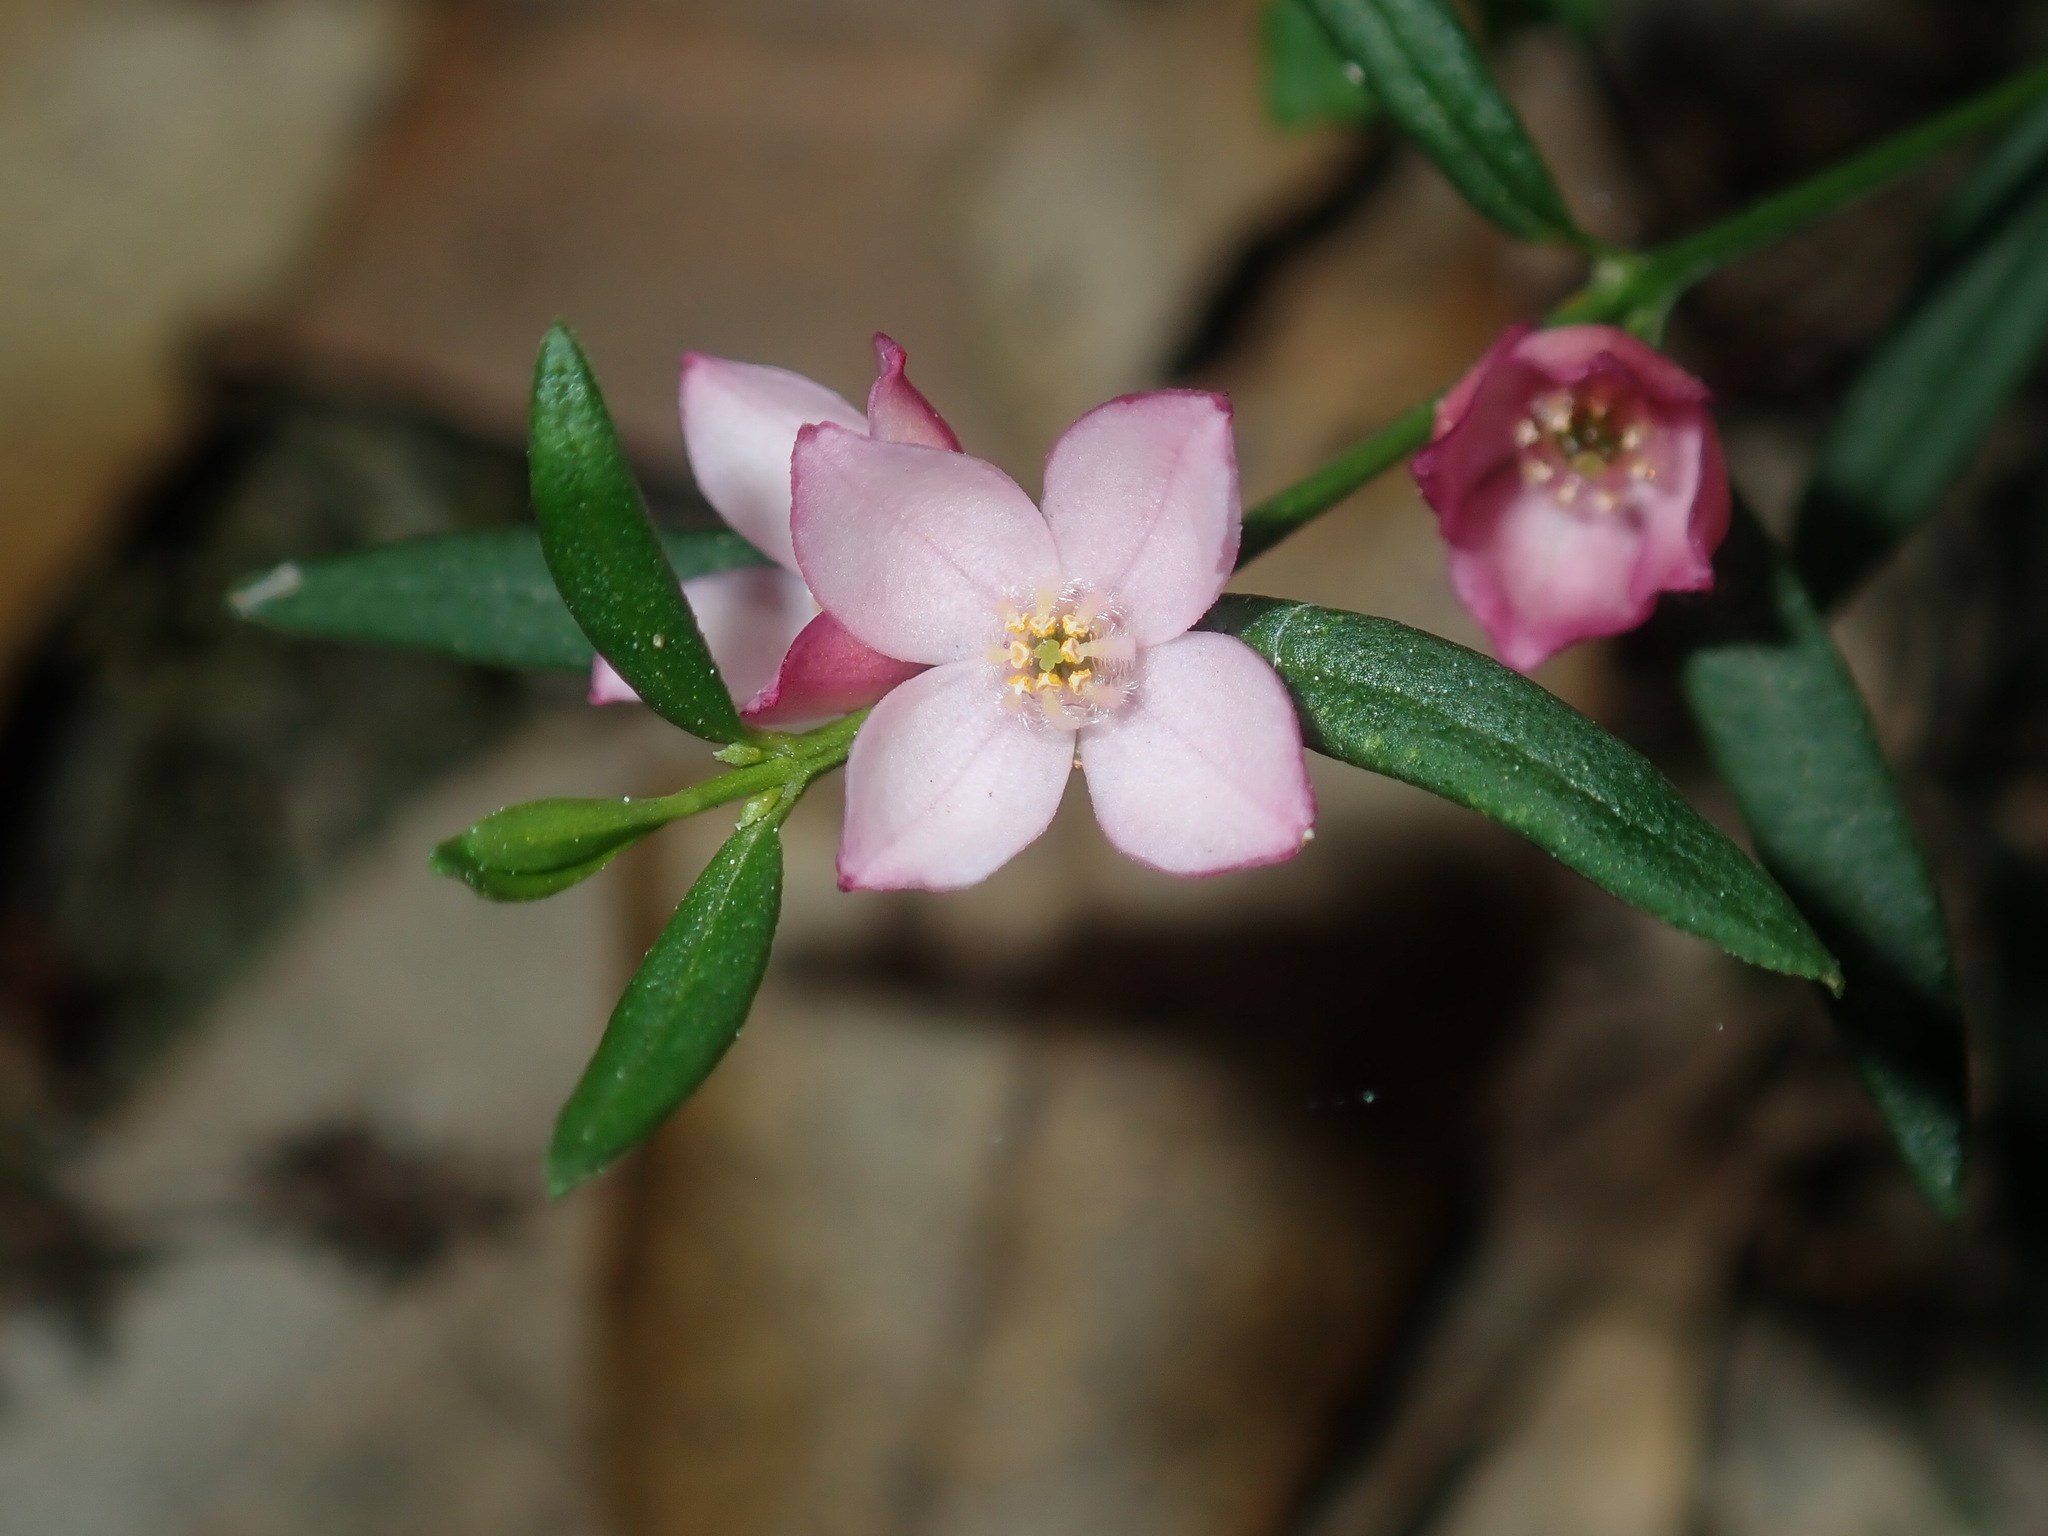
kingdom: Plantae
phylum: Tracheophyta
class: Magnoliopsida
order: Sapindales
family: Rutaceae
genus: Cyanothamnus
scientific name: Cyanothamnus polygalifolius
